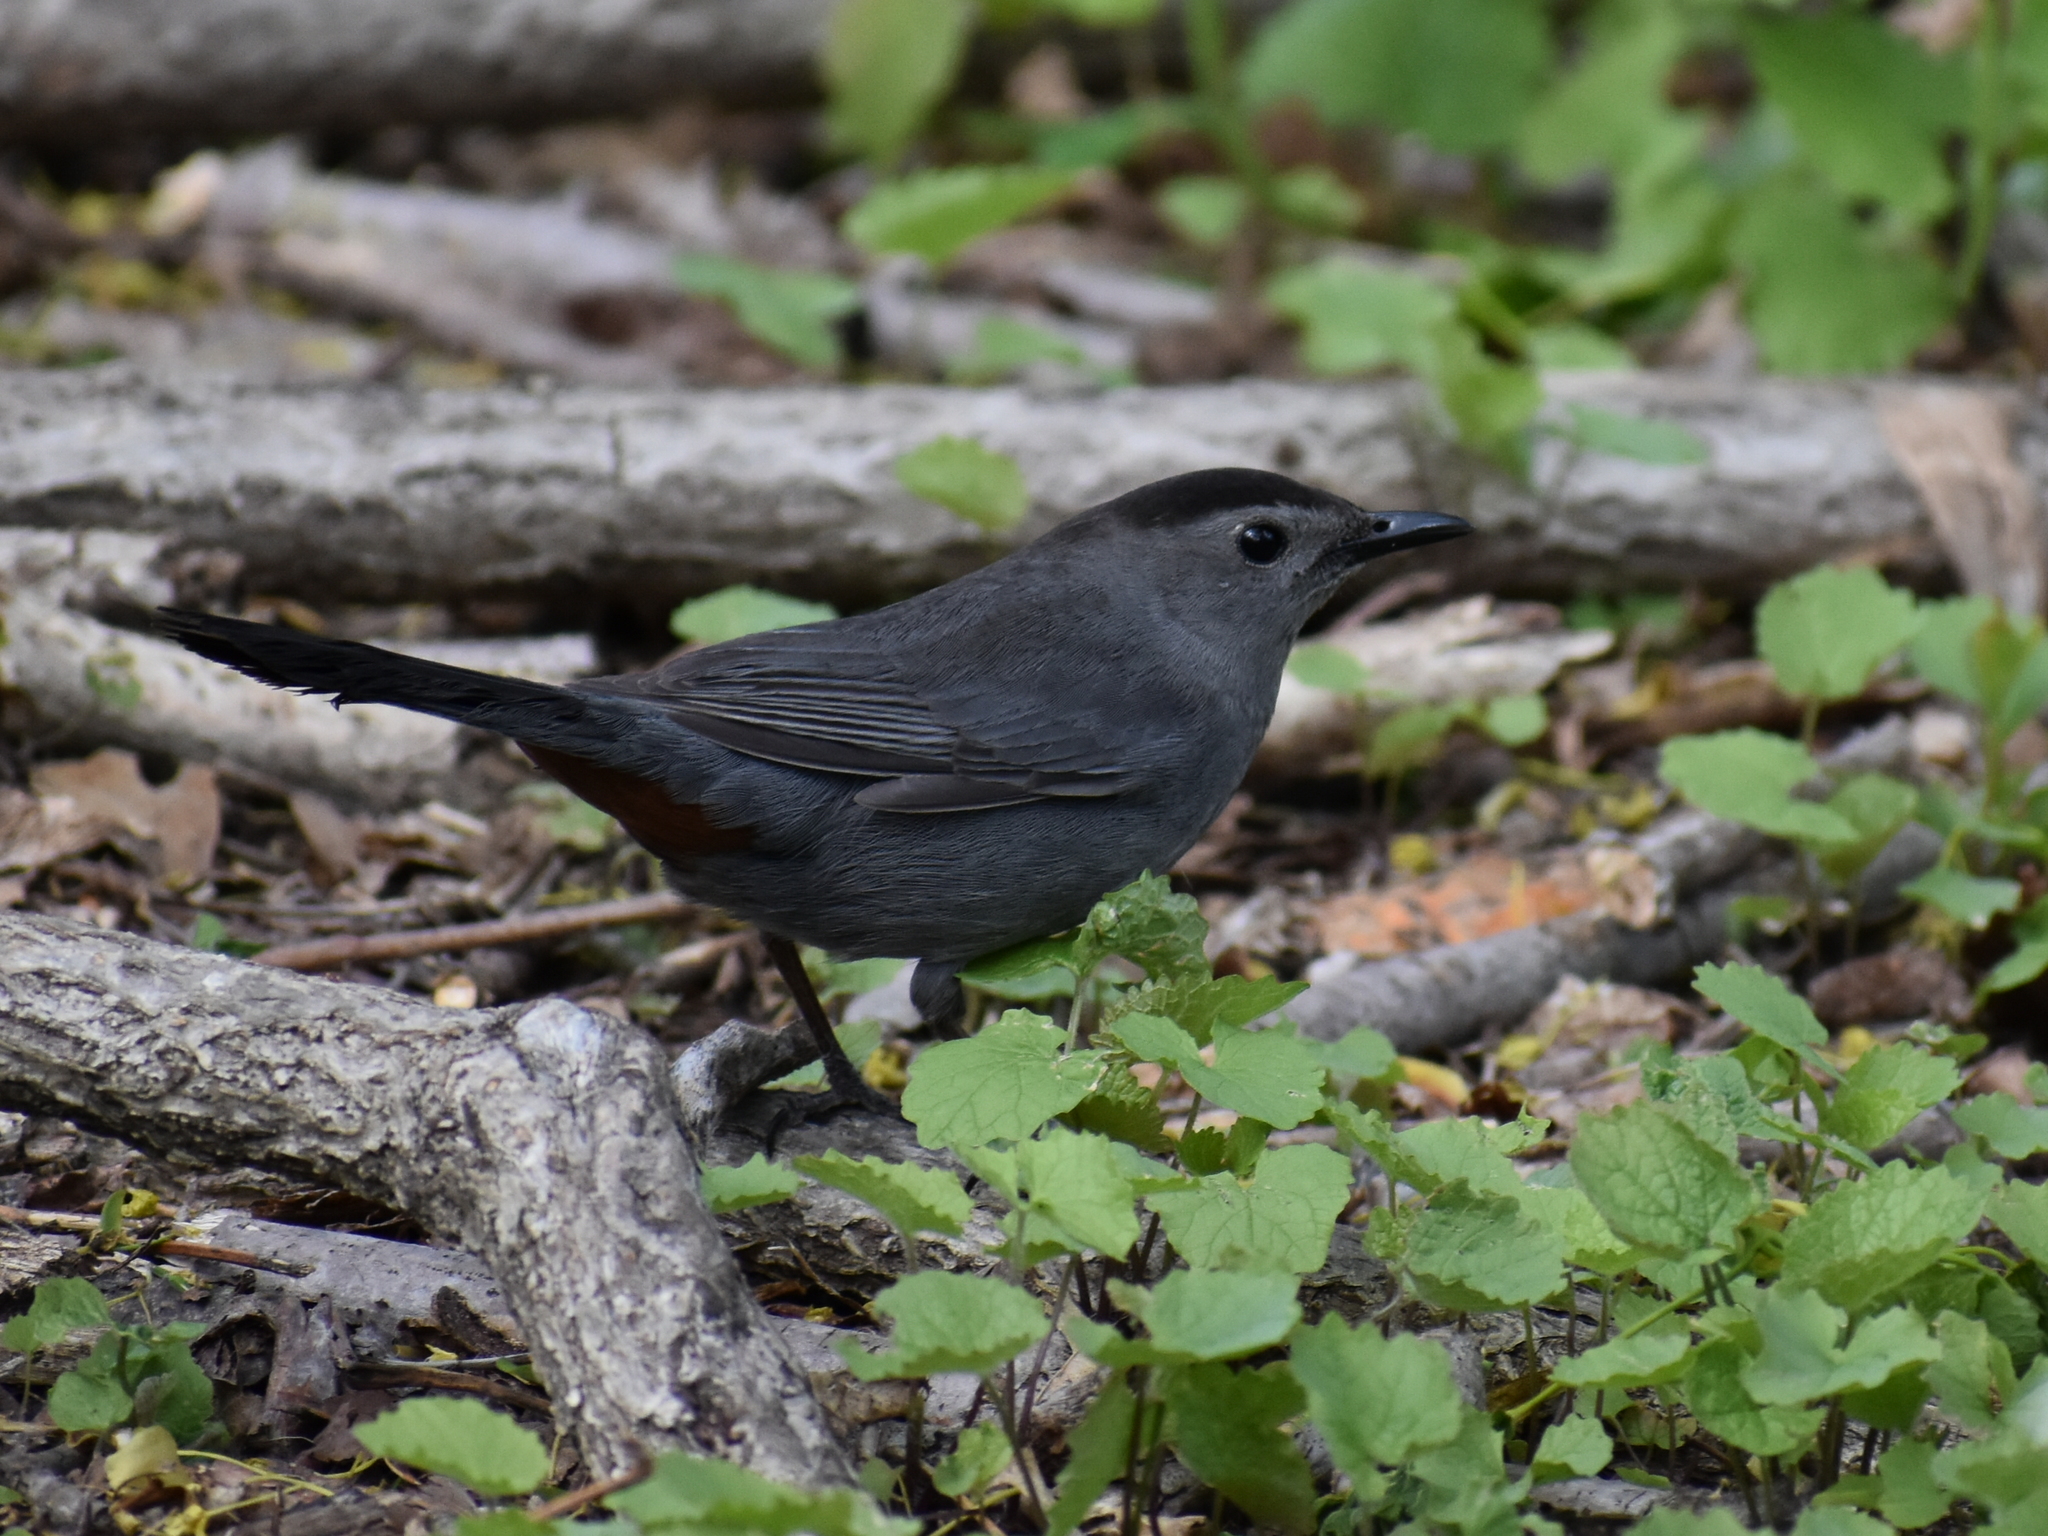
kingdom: Animalia
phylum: Chordata
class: Aves
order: Passeriformes
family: Mimidae
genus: Dumetella
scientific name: Dumetella carolinensis
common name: Gray catbird
